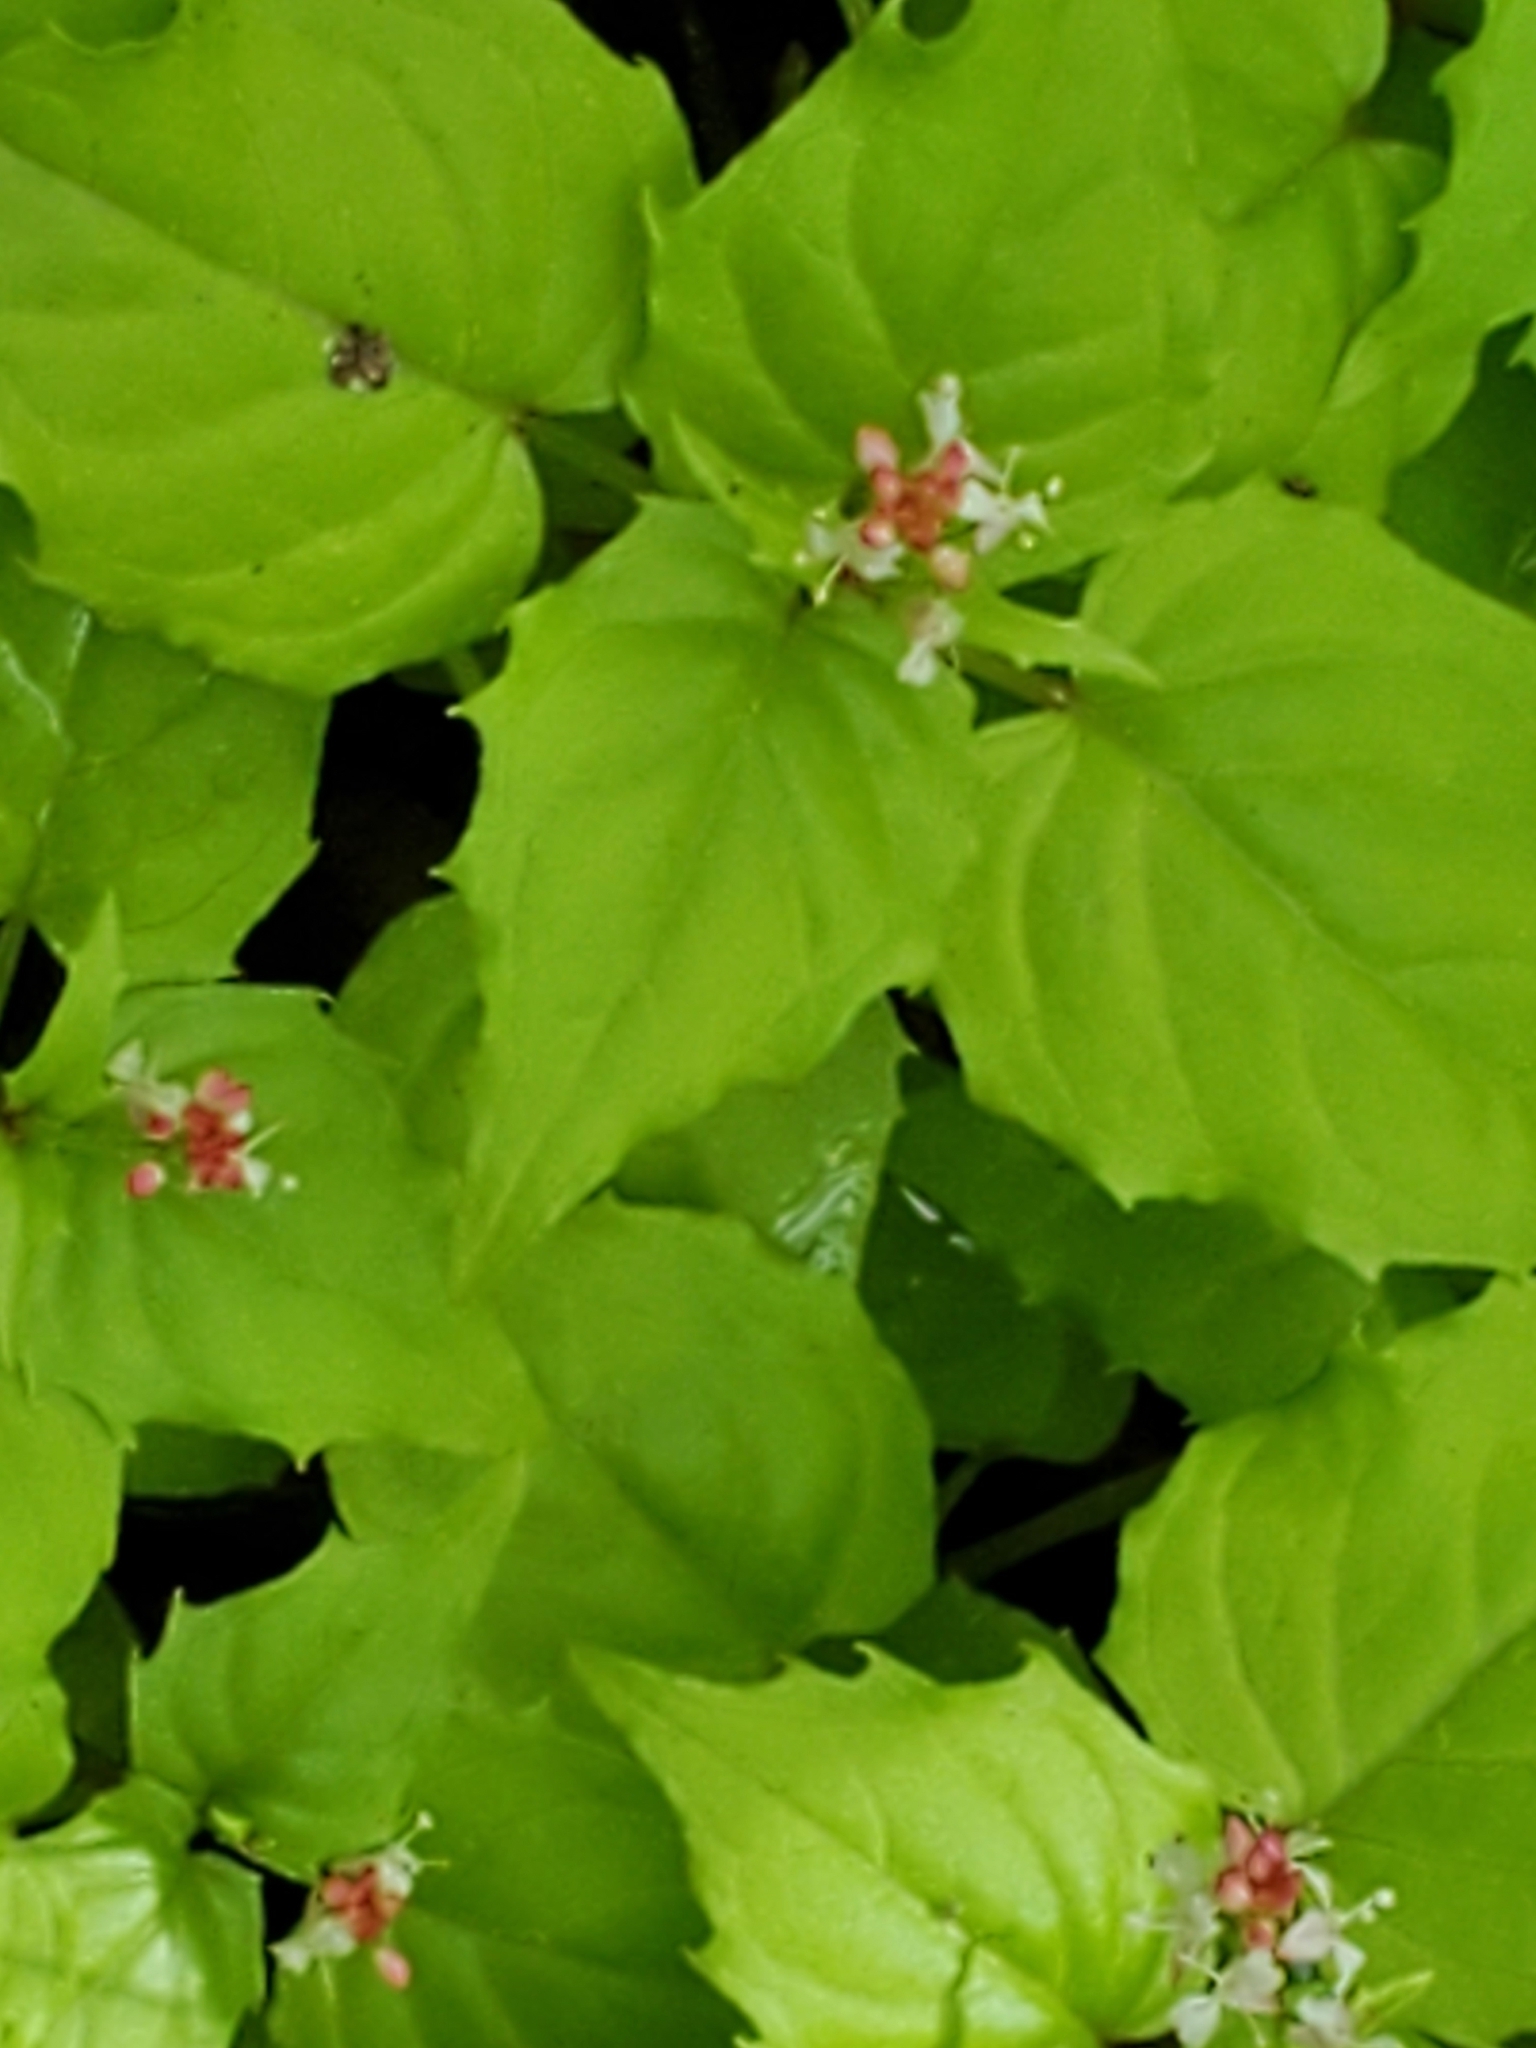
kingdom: Plantae
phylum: Tracheophyta
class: Magnoliopsida
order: Myrtales
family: Onagraceae
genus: Circaea
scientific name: Circaea alpina
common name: Alpine enchanter's-nightshade
